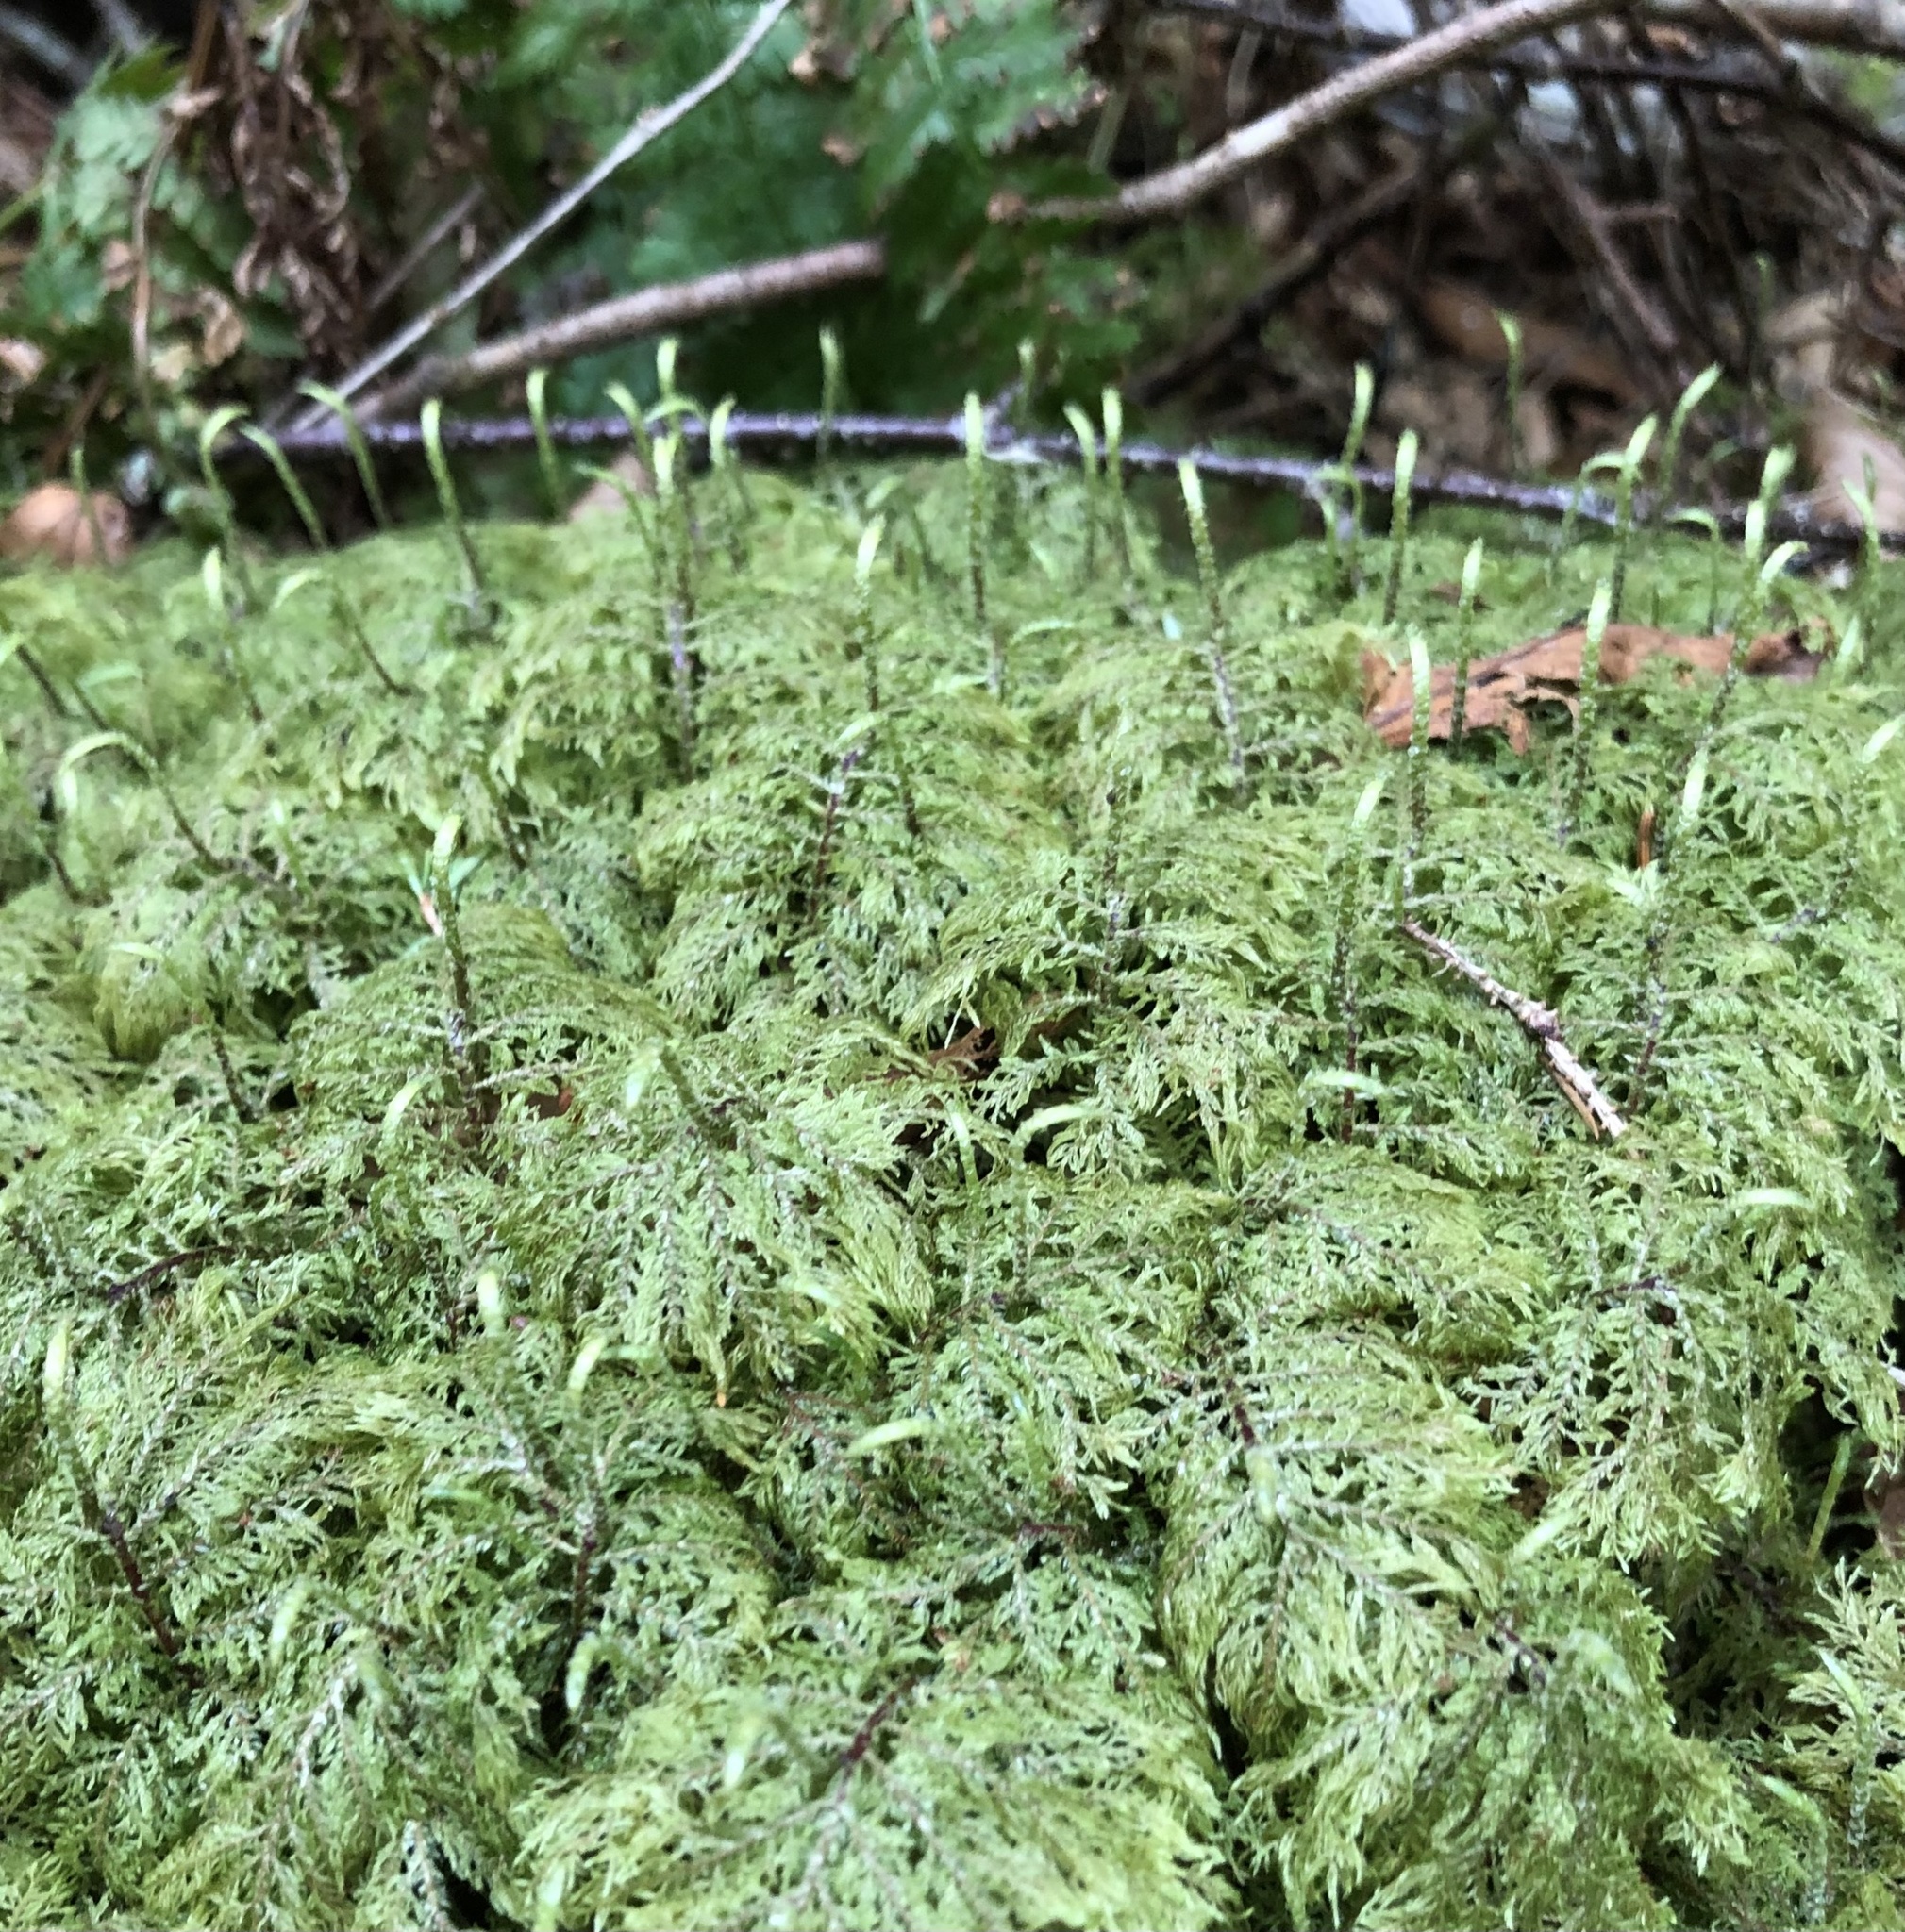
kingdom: Plantae
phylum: Bryophyta
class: Bryopsida
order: Hypnales
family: Hylocomiaceae
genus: Hylocomium
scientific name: Hylocomium splendens
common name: Stairstep moss
